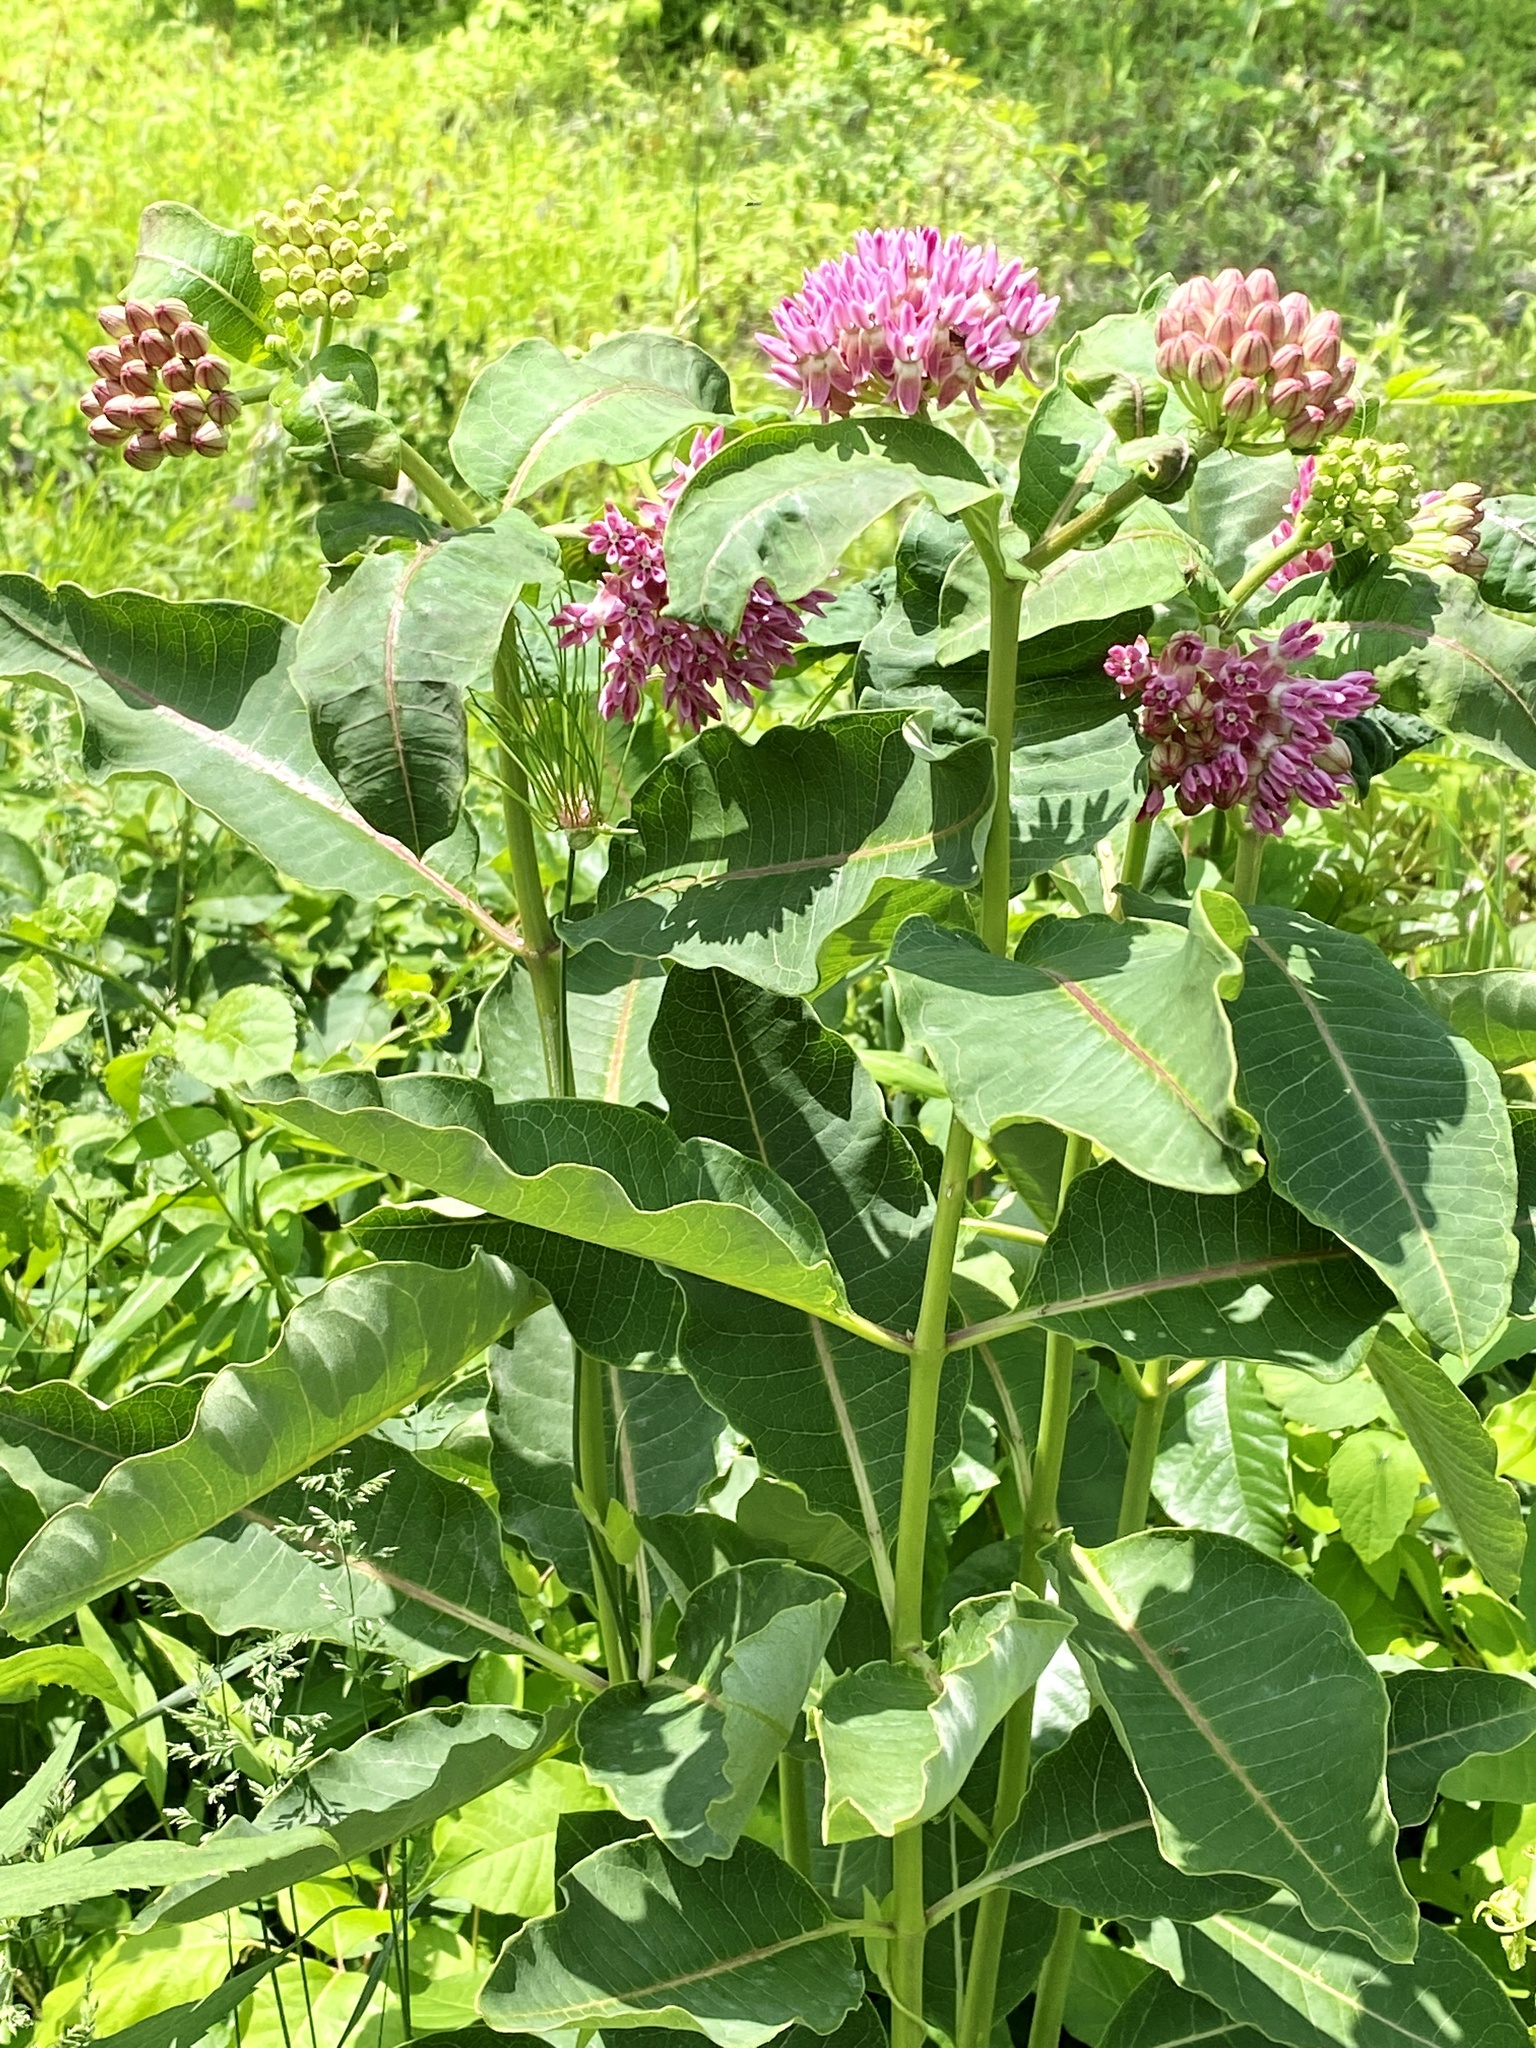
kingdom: Plantae
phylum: Tracheophyta
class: Magnoliopsida
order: Gentianales
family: Apocynaceae
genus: Asclepias
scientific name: Asclepias purpurascens
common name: Purple milkweed
